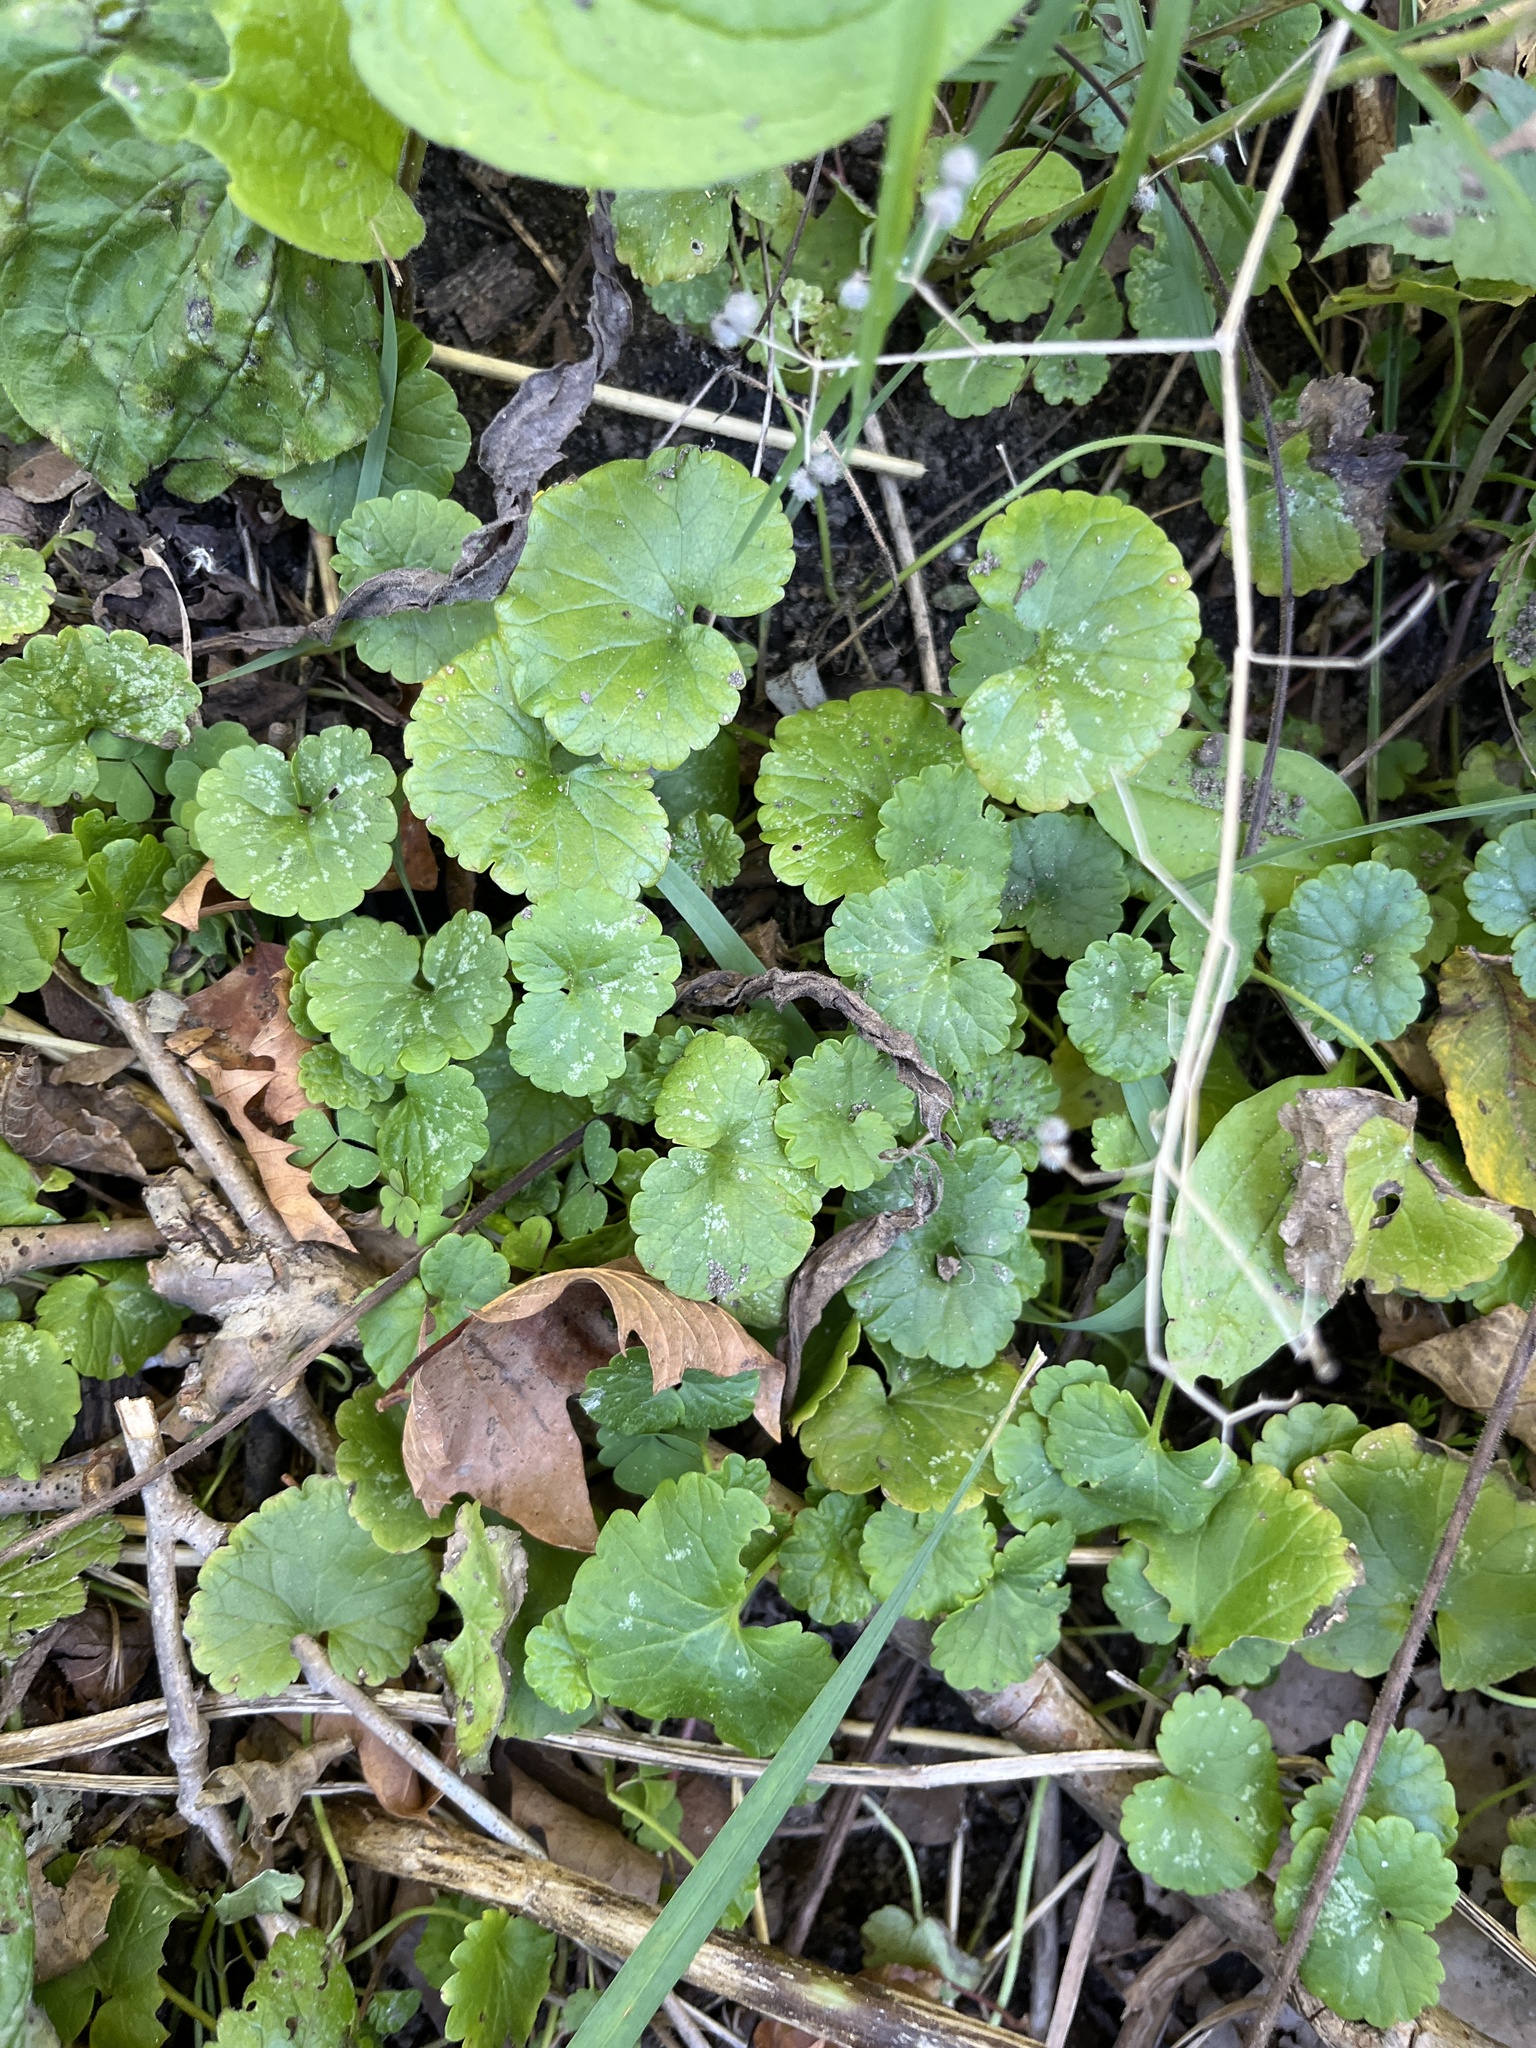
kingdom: Plantae
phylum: Tracheophyta
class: Magnoliopsida
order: Lamiales
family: Lamiaceae
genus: Glechoma
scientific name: Glechoma hederacea
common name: Ground ivy
